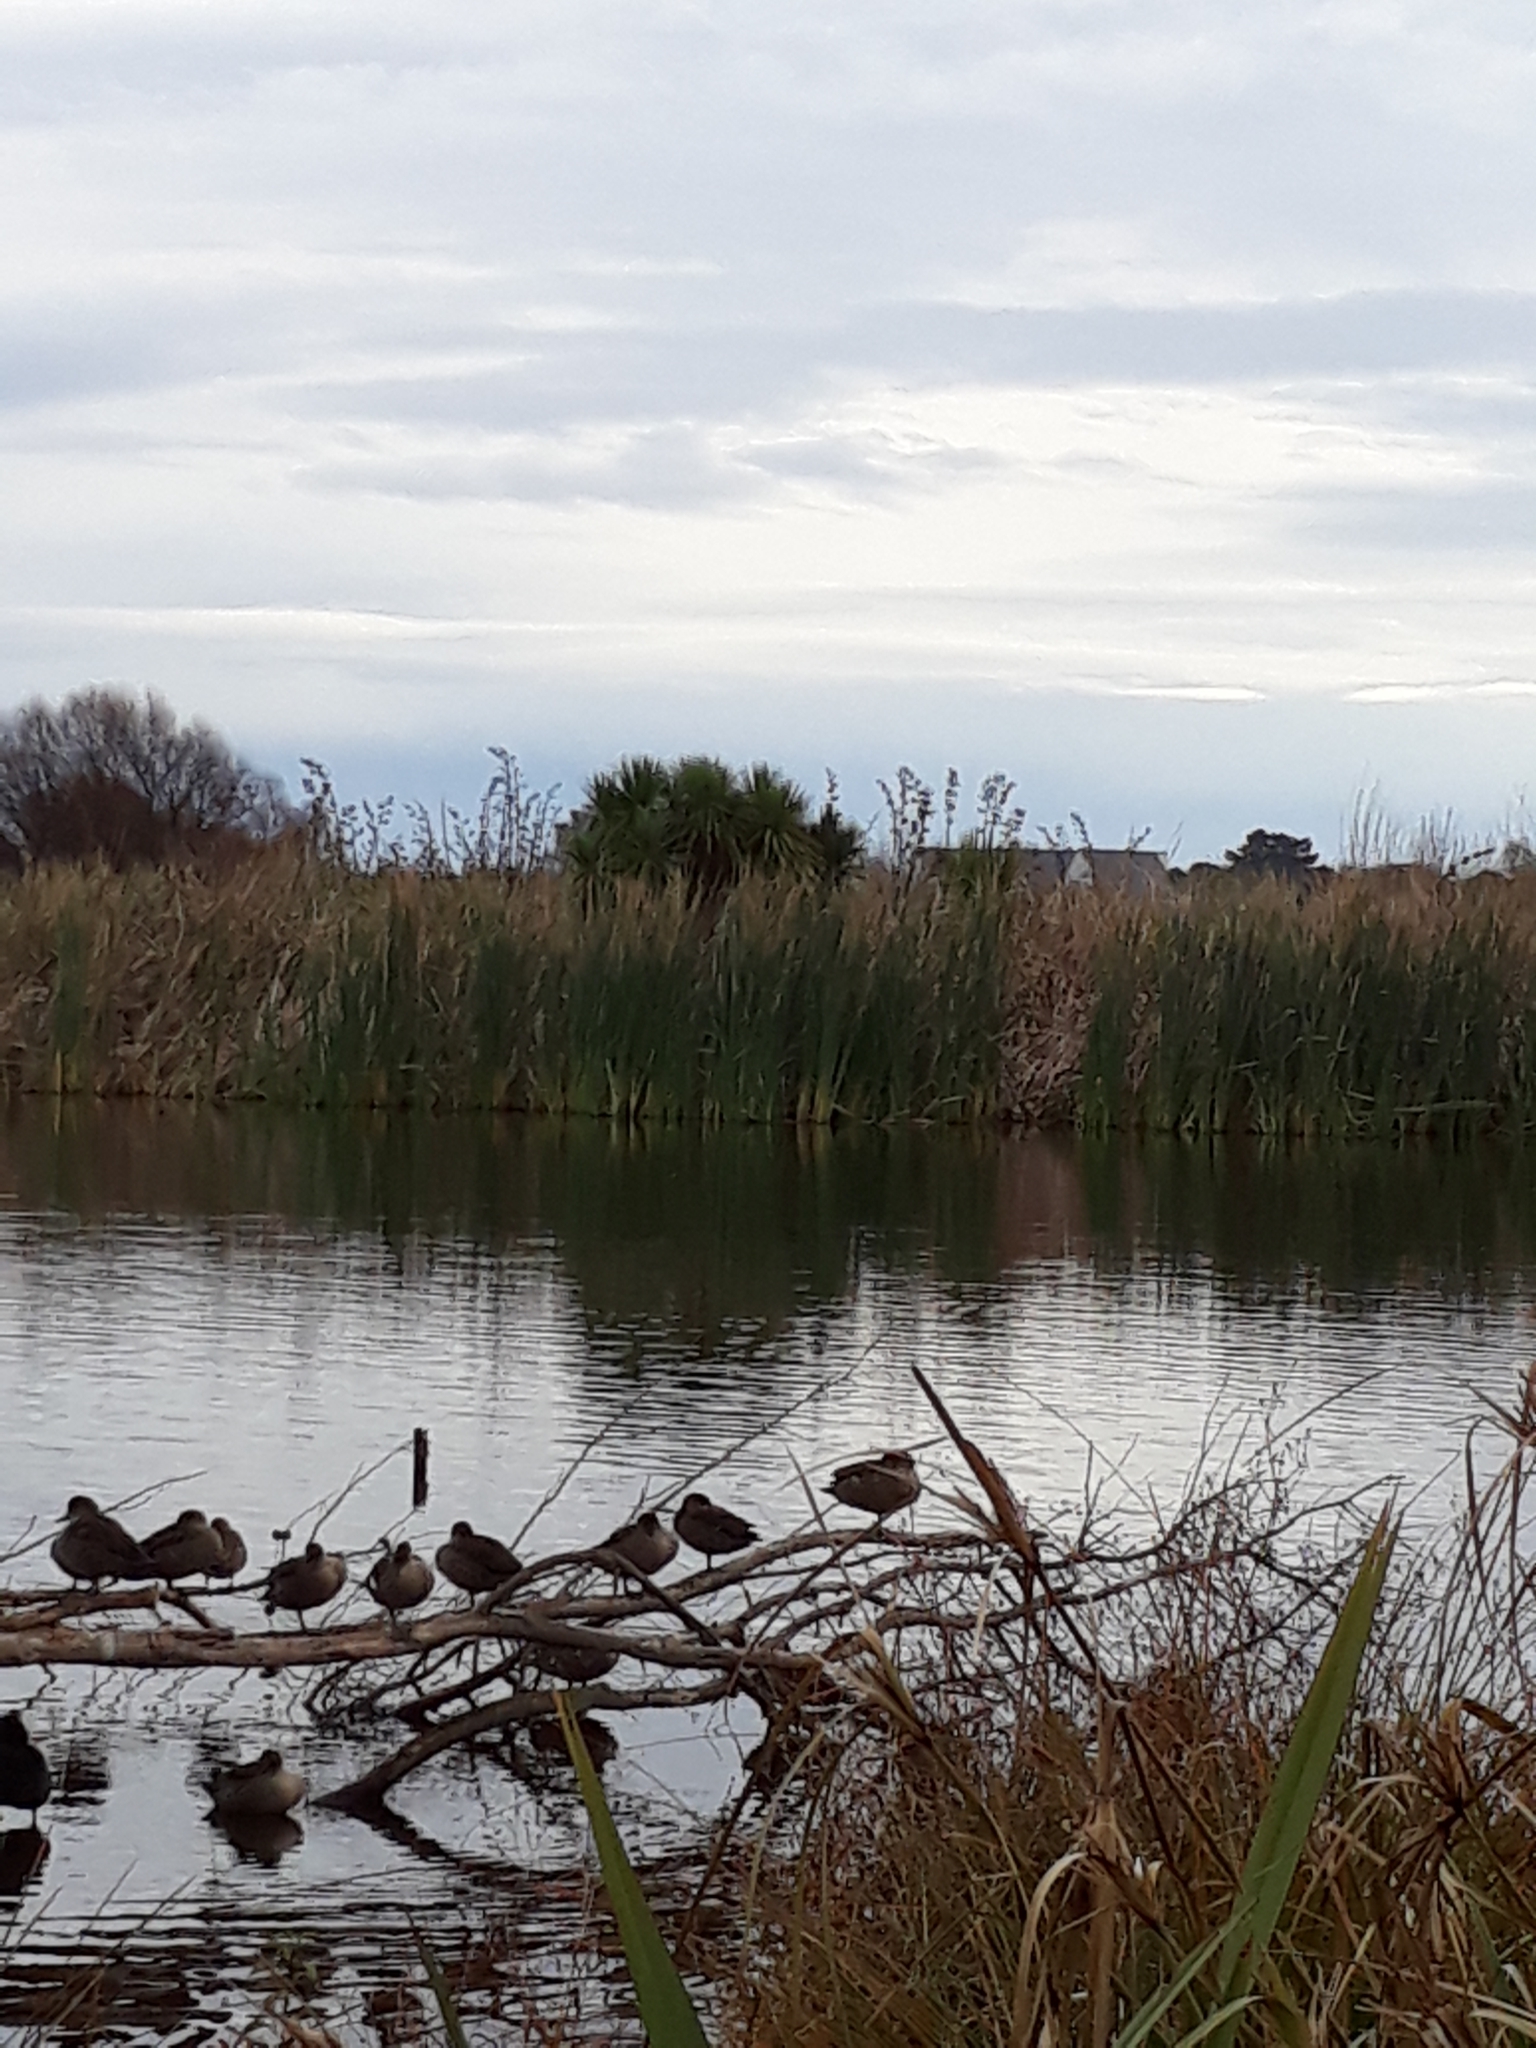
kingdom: Animalia
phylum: Chordata
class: Aves
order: Anseriformes
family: Anatidae
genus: Anas
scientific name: Anas gracilis
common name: Grey teal
